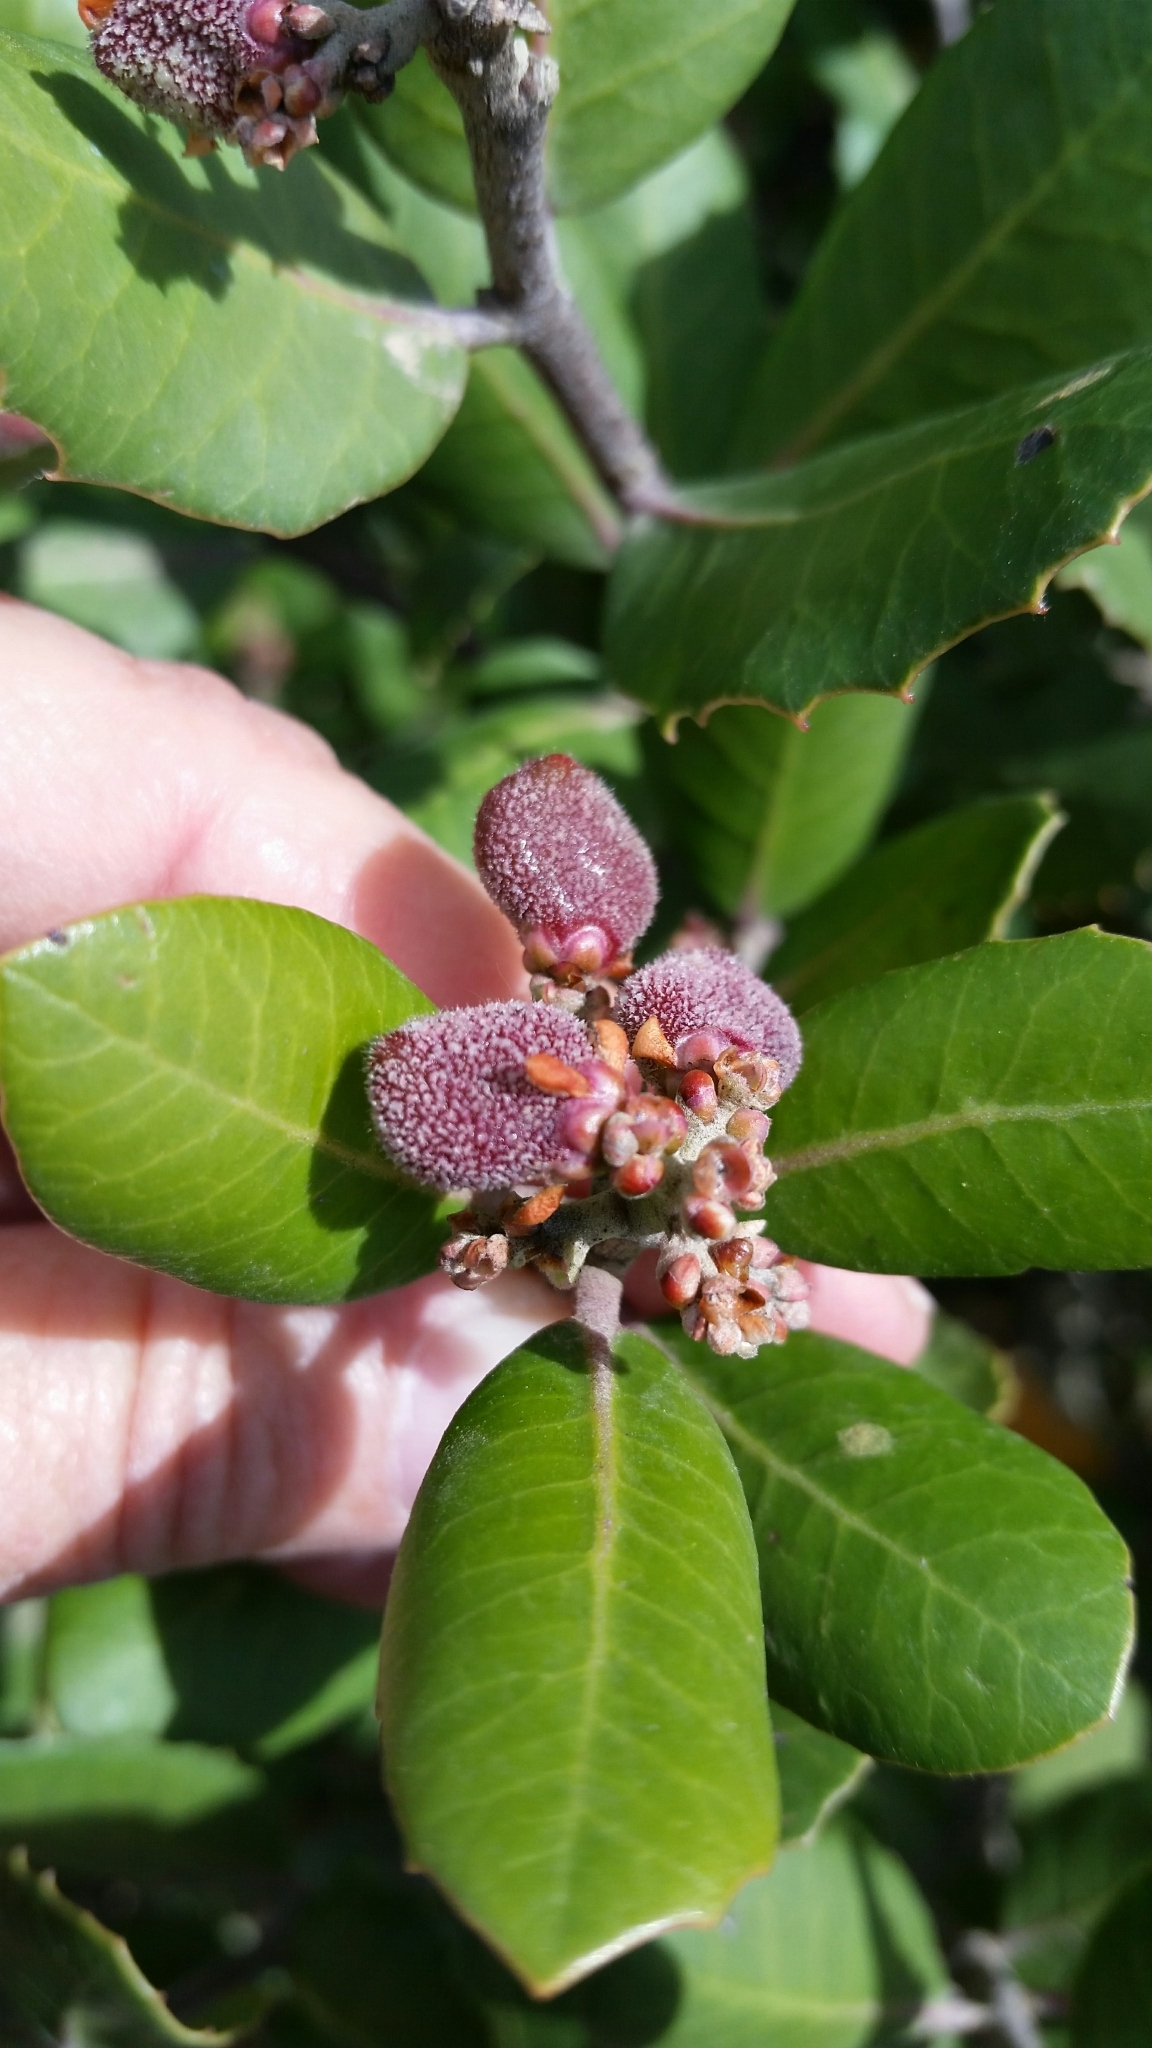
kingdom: Plantae
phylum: Tracheophyta
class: Magnoliopsida
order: Sapindales
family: Anacardiaceae
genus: Rhus
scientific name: Rhus integrifolia
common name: Lemonade sumac
